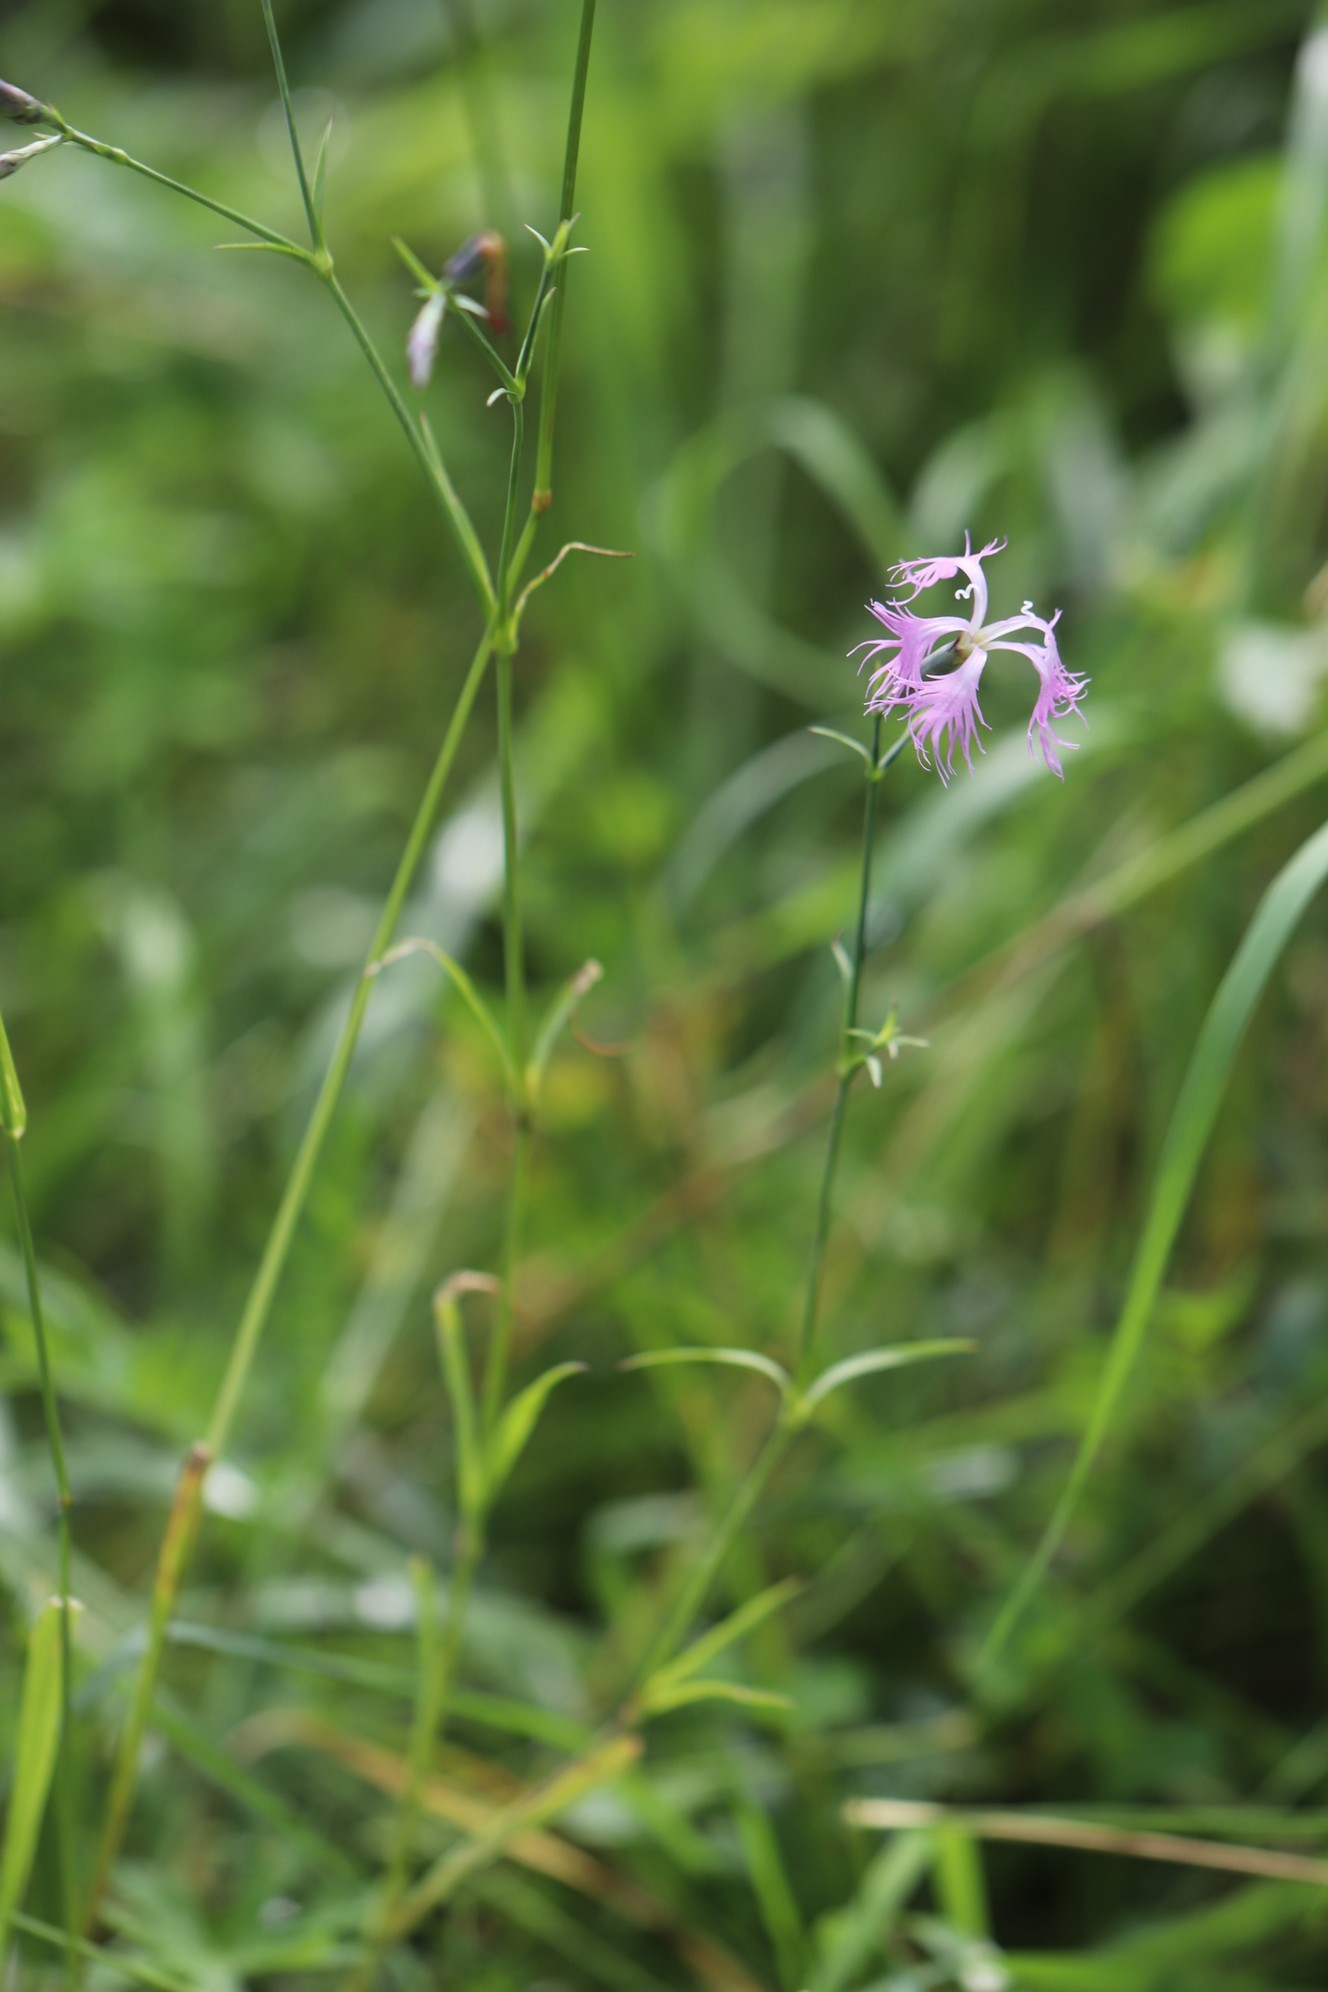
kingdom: Plantae
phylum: Tracheophyta
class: Magnoliopsida
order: Caryophyllales
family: Caryophyllaceae
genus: Dianthus
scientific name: Dianthus superbus
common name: Fringed pink
